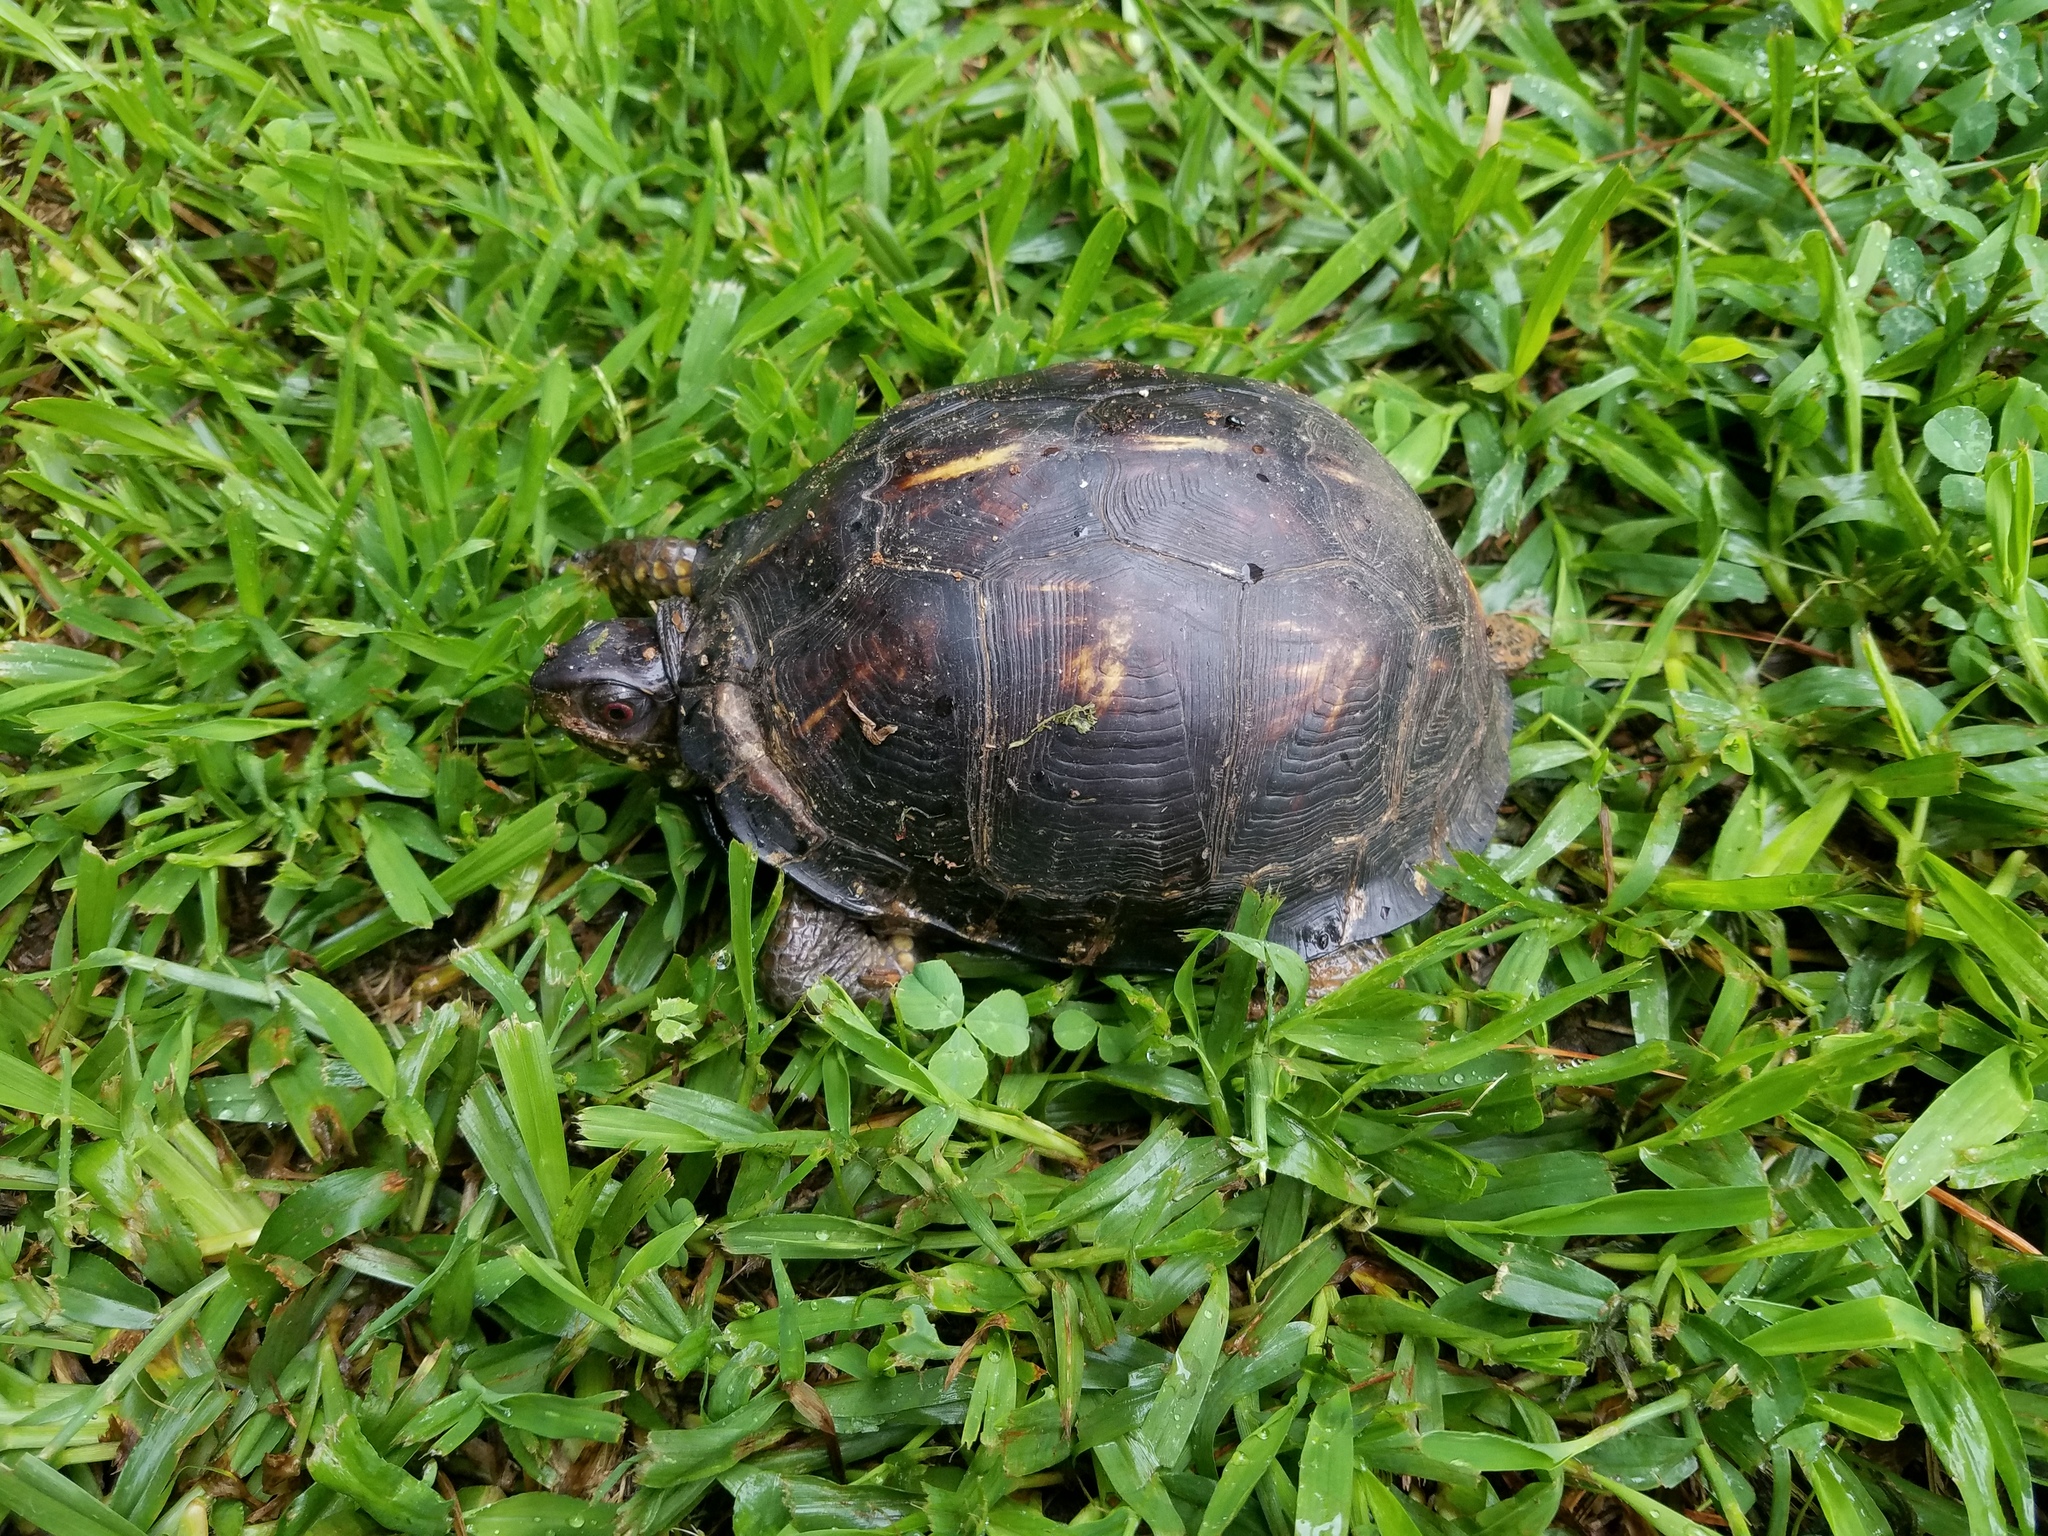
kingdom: Animalia
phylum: Chordata
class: Testudines
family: Emydidae
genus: Terrapene
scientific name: Terrapene carolina
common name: Common box turtle
